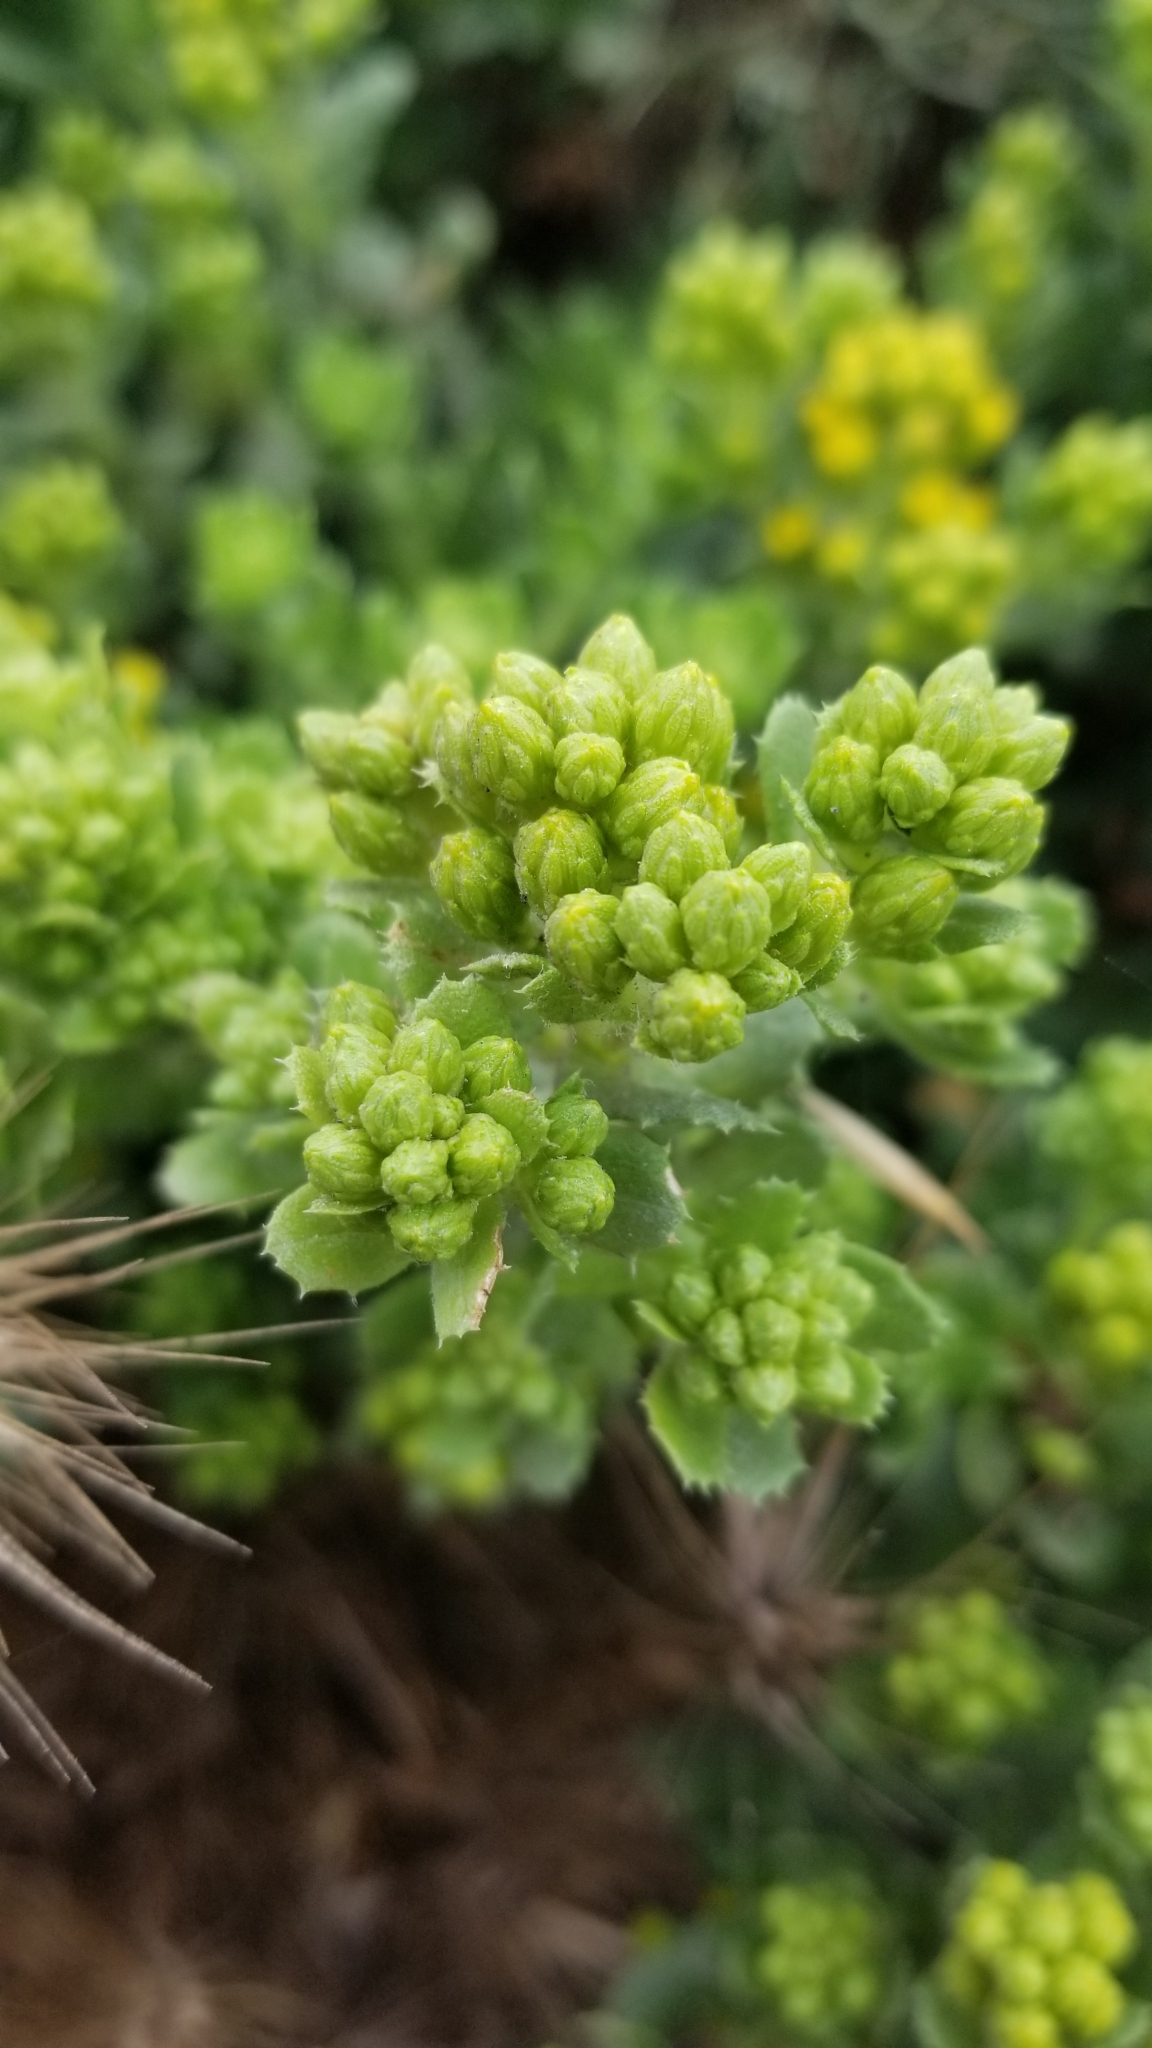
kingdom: Plantae
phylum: Tracheophyta
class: Magnoliopsida
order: Asterales
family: Asteraceae
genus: Isocoma
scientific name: Isocoma menziesii
